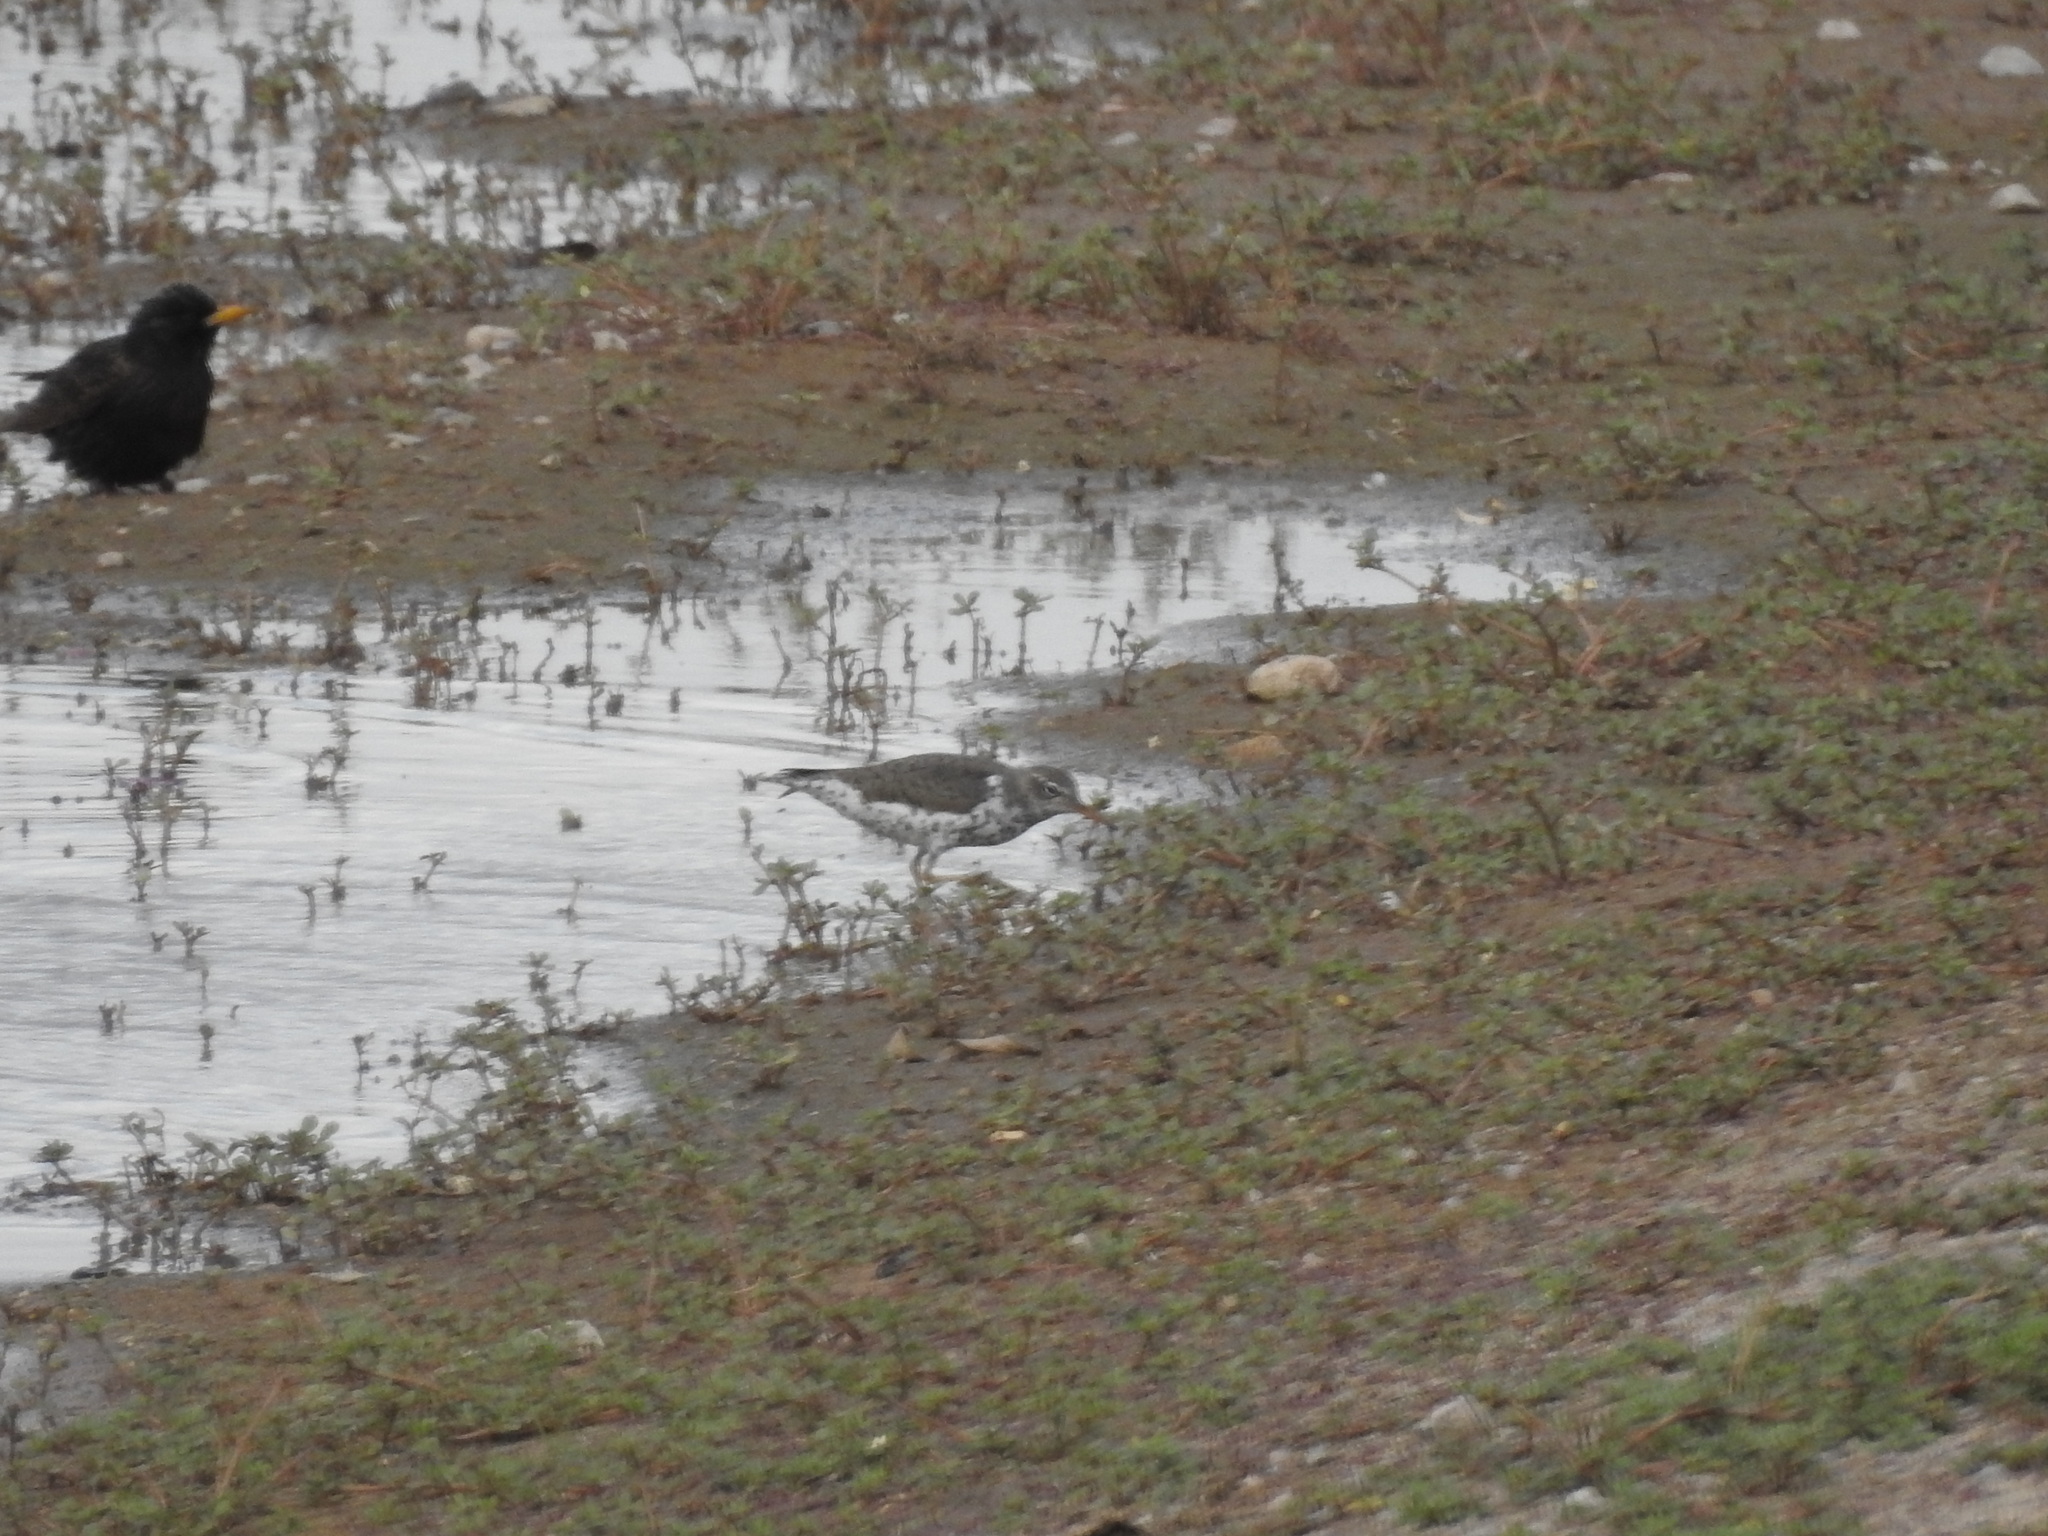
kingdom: Animalia
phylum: Chordata
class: Aves
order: Charadriiformes
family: Scolopacidae
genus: Actitis
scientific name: Actitis macularius
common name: Spotted sandpiper
